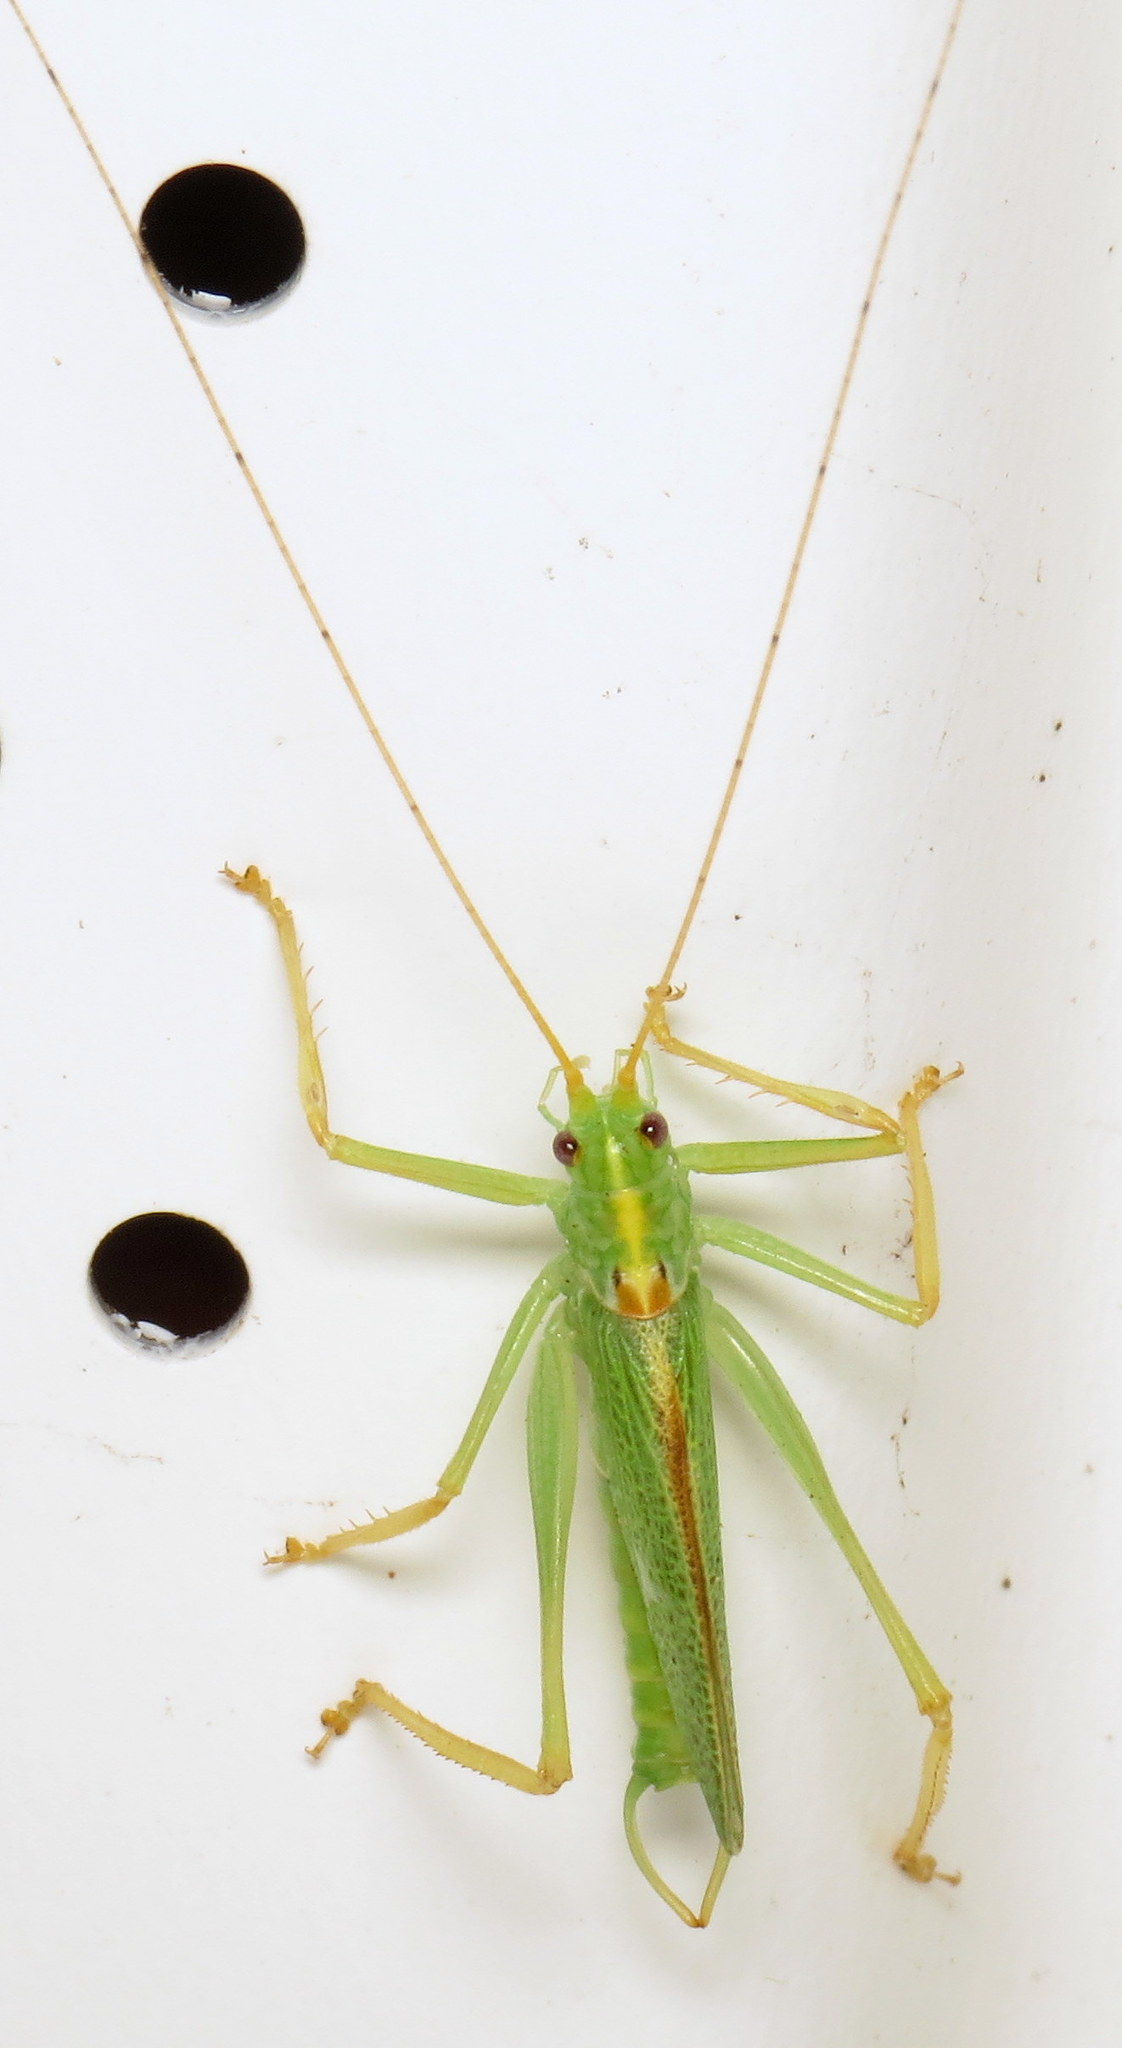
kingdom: Animalia
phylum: Arthropoda
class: Insecta
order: Orthoptera
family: Tettigoniidae
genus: Meconema
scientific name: Meconema thalassinum
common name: Oak bush-cricket
